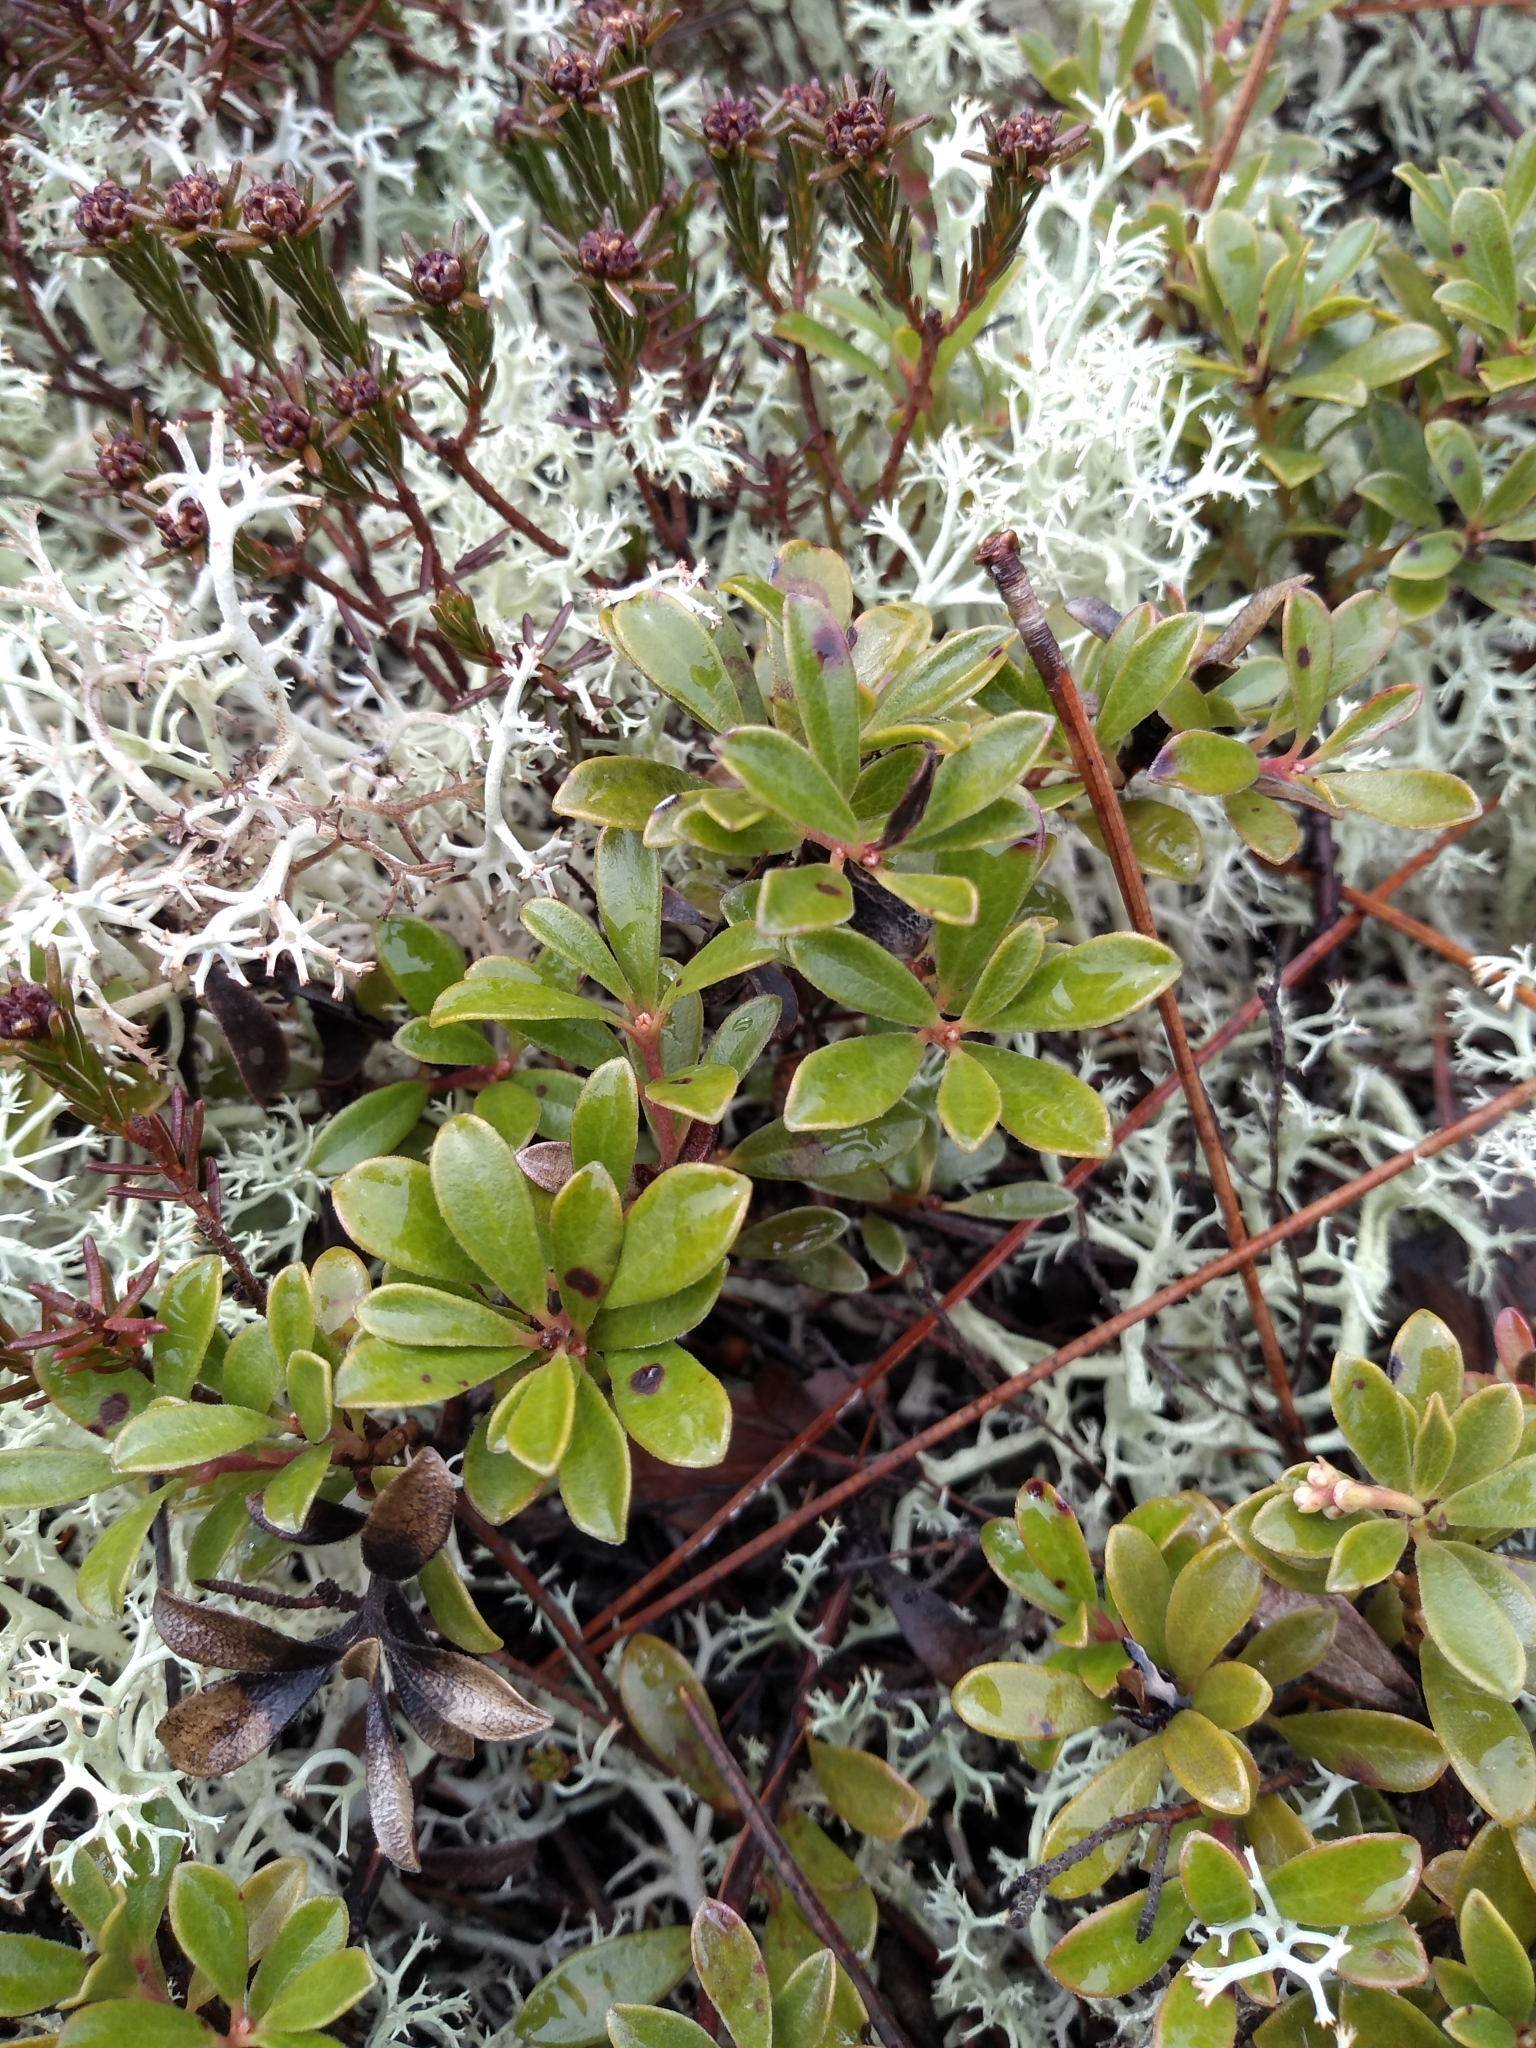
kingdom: Plantae
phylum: Tracheophyta
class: Magnoliopsida
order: Ericales
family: Ericaceae
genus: Arctostaphylos
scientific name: Arctostaphylos uva-ursi
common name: Bearberry
